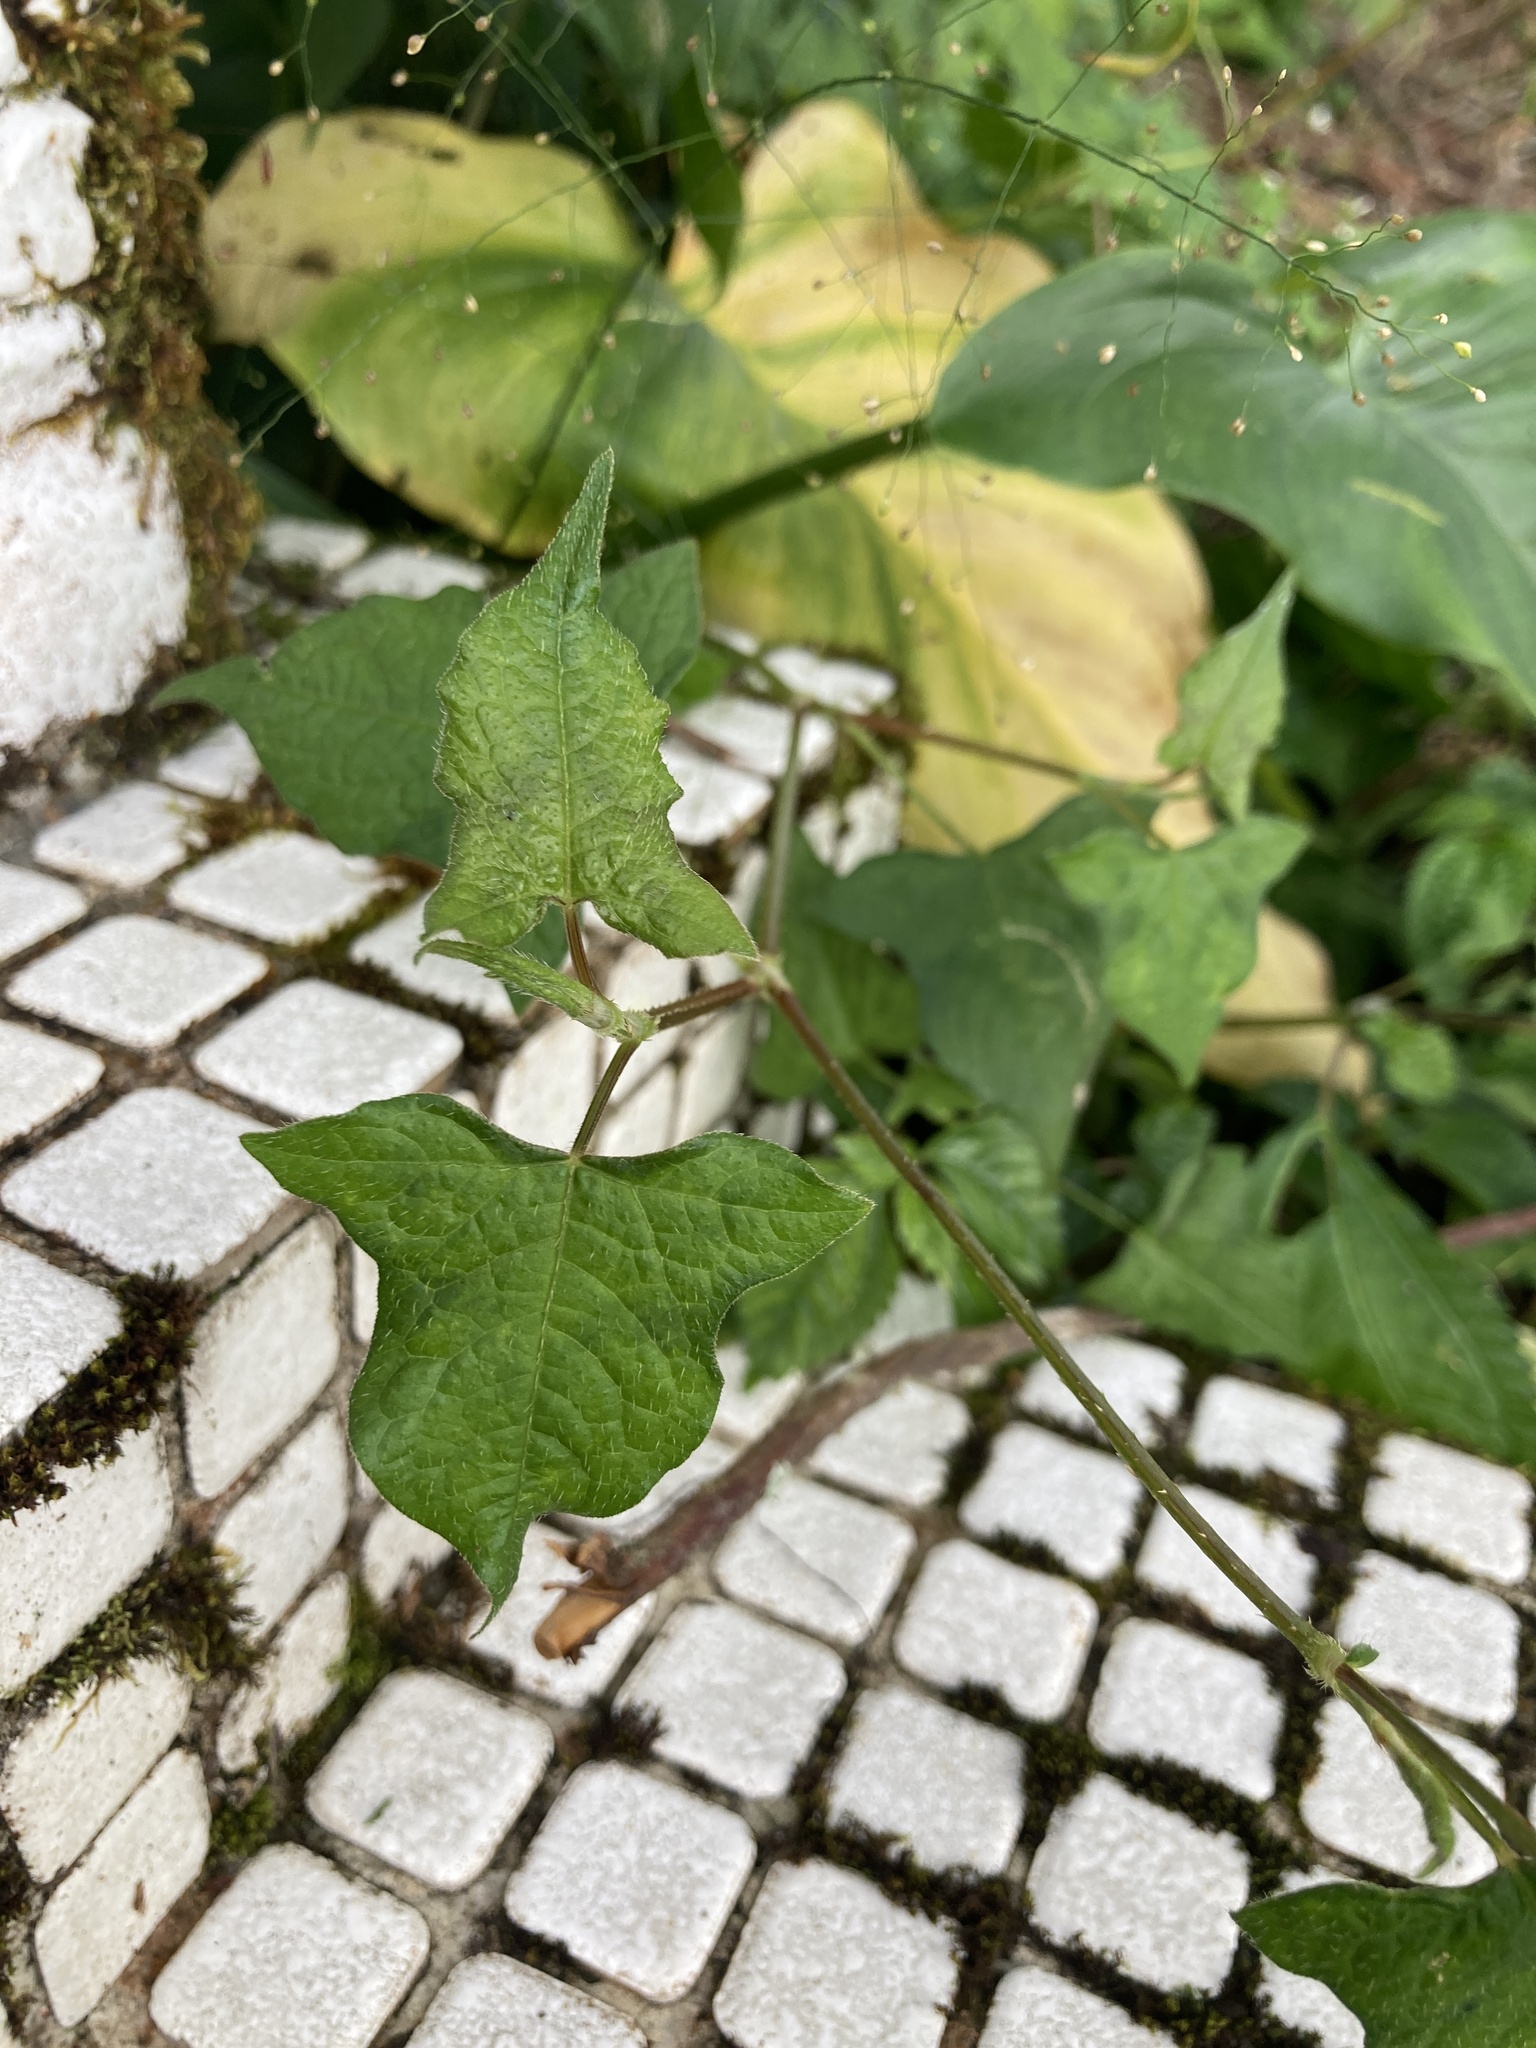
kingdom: Plantae
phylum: Tracheophyta
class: Magnoliopsida
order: Caryophyllales
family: Polygonaceae
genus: Persicaria
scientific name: Persicaria biconvexa
